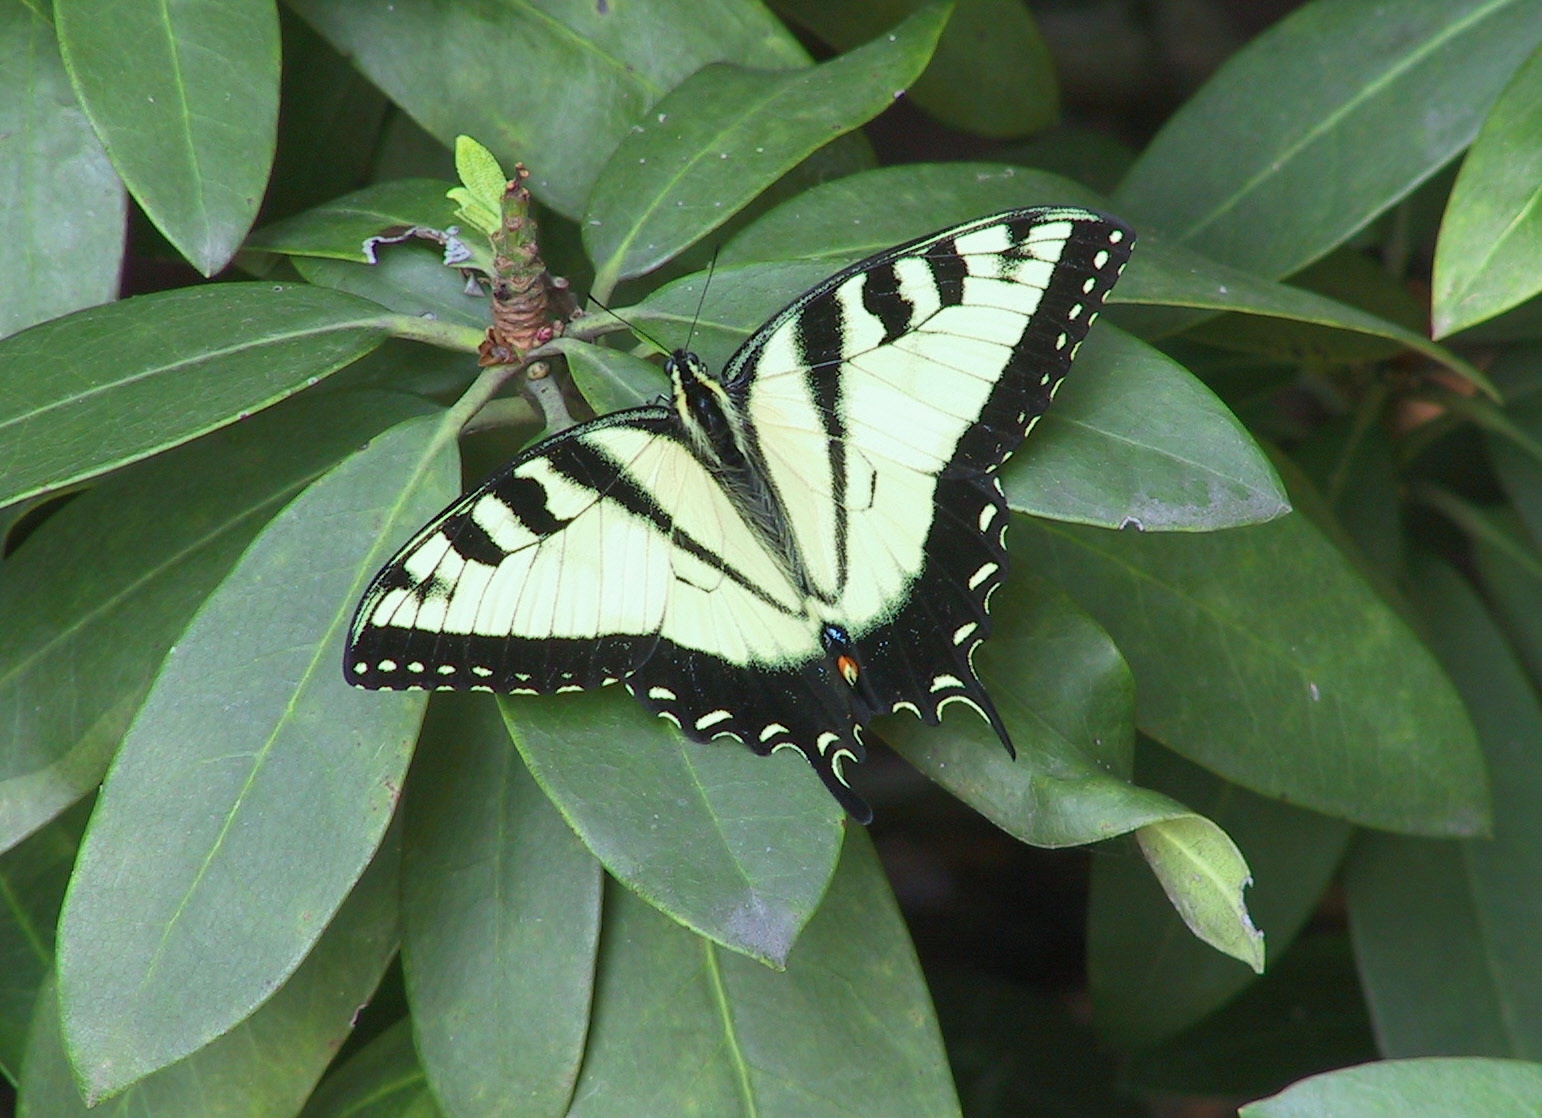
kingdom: Animalia
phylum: Arthropoda
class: Insecta
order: Lepidoptera
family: Papilionidae
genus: Papilio
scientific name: Papilio glaucus
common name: Tiger swallowtail
